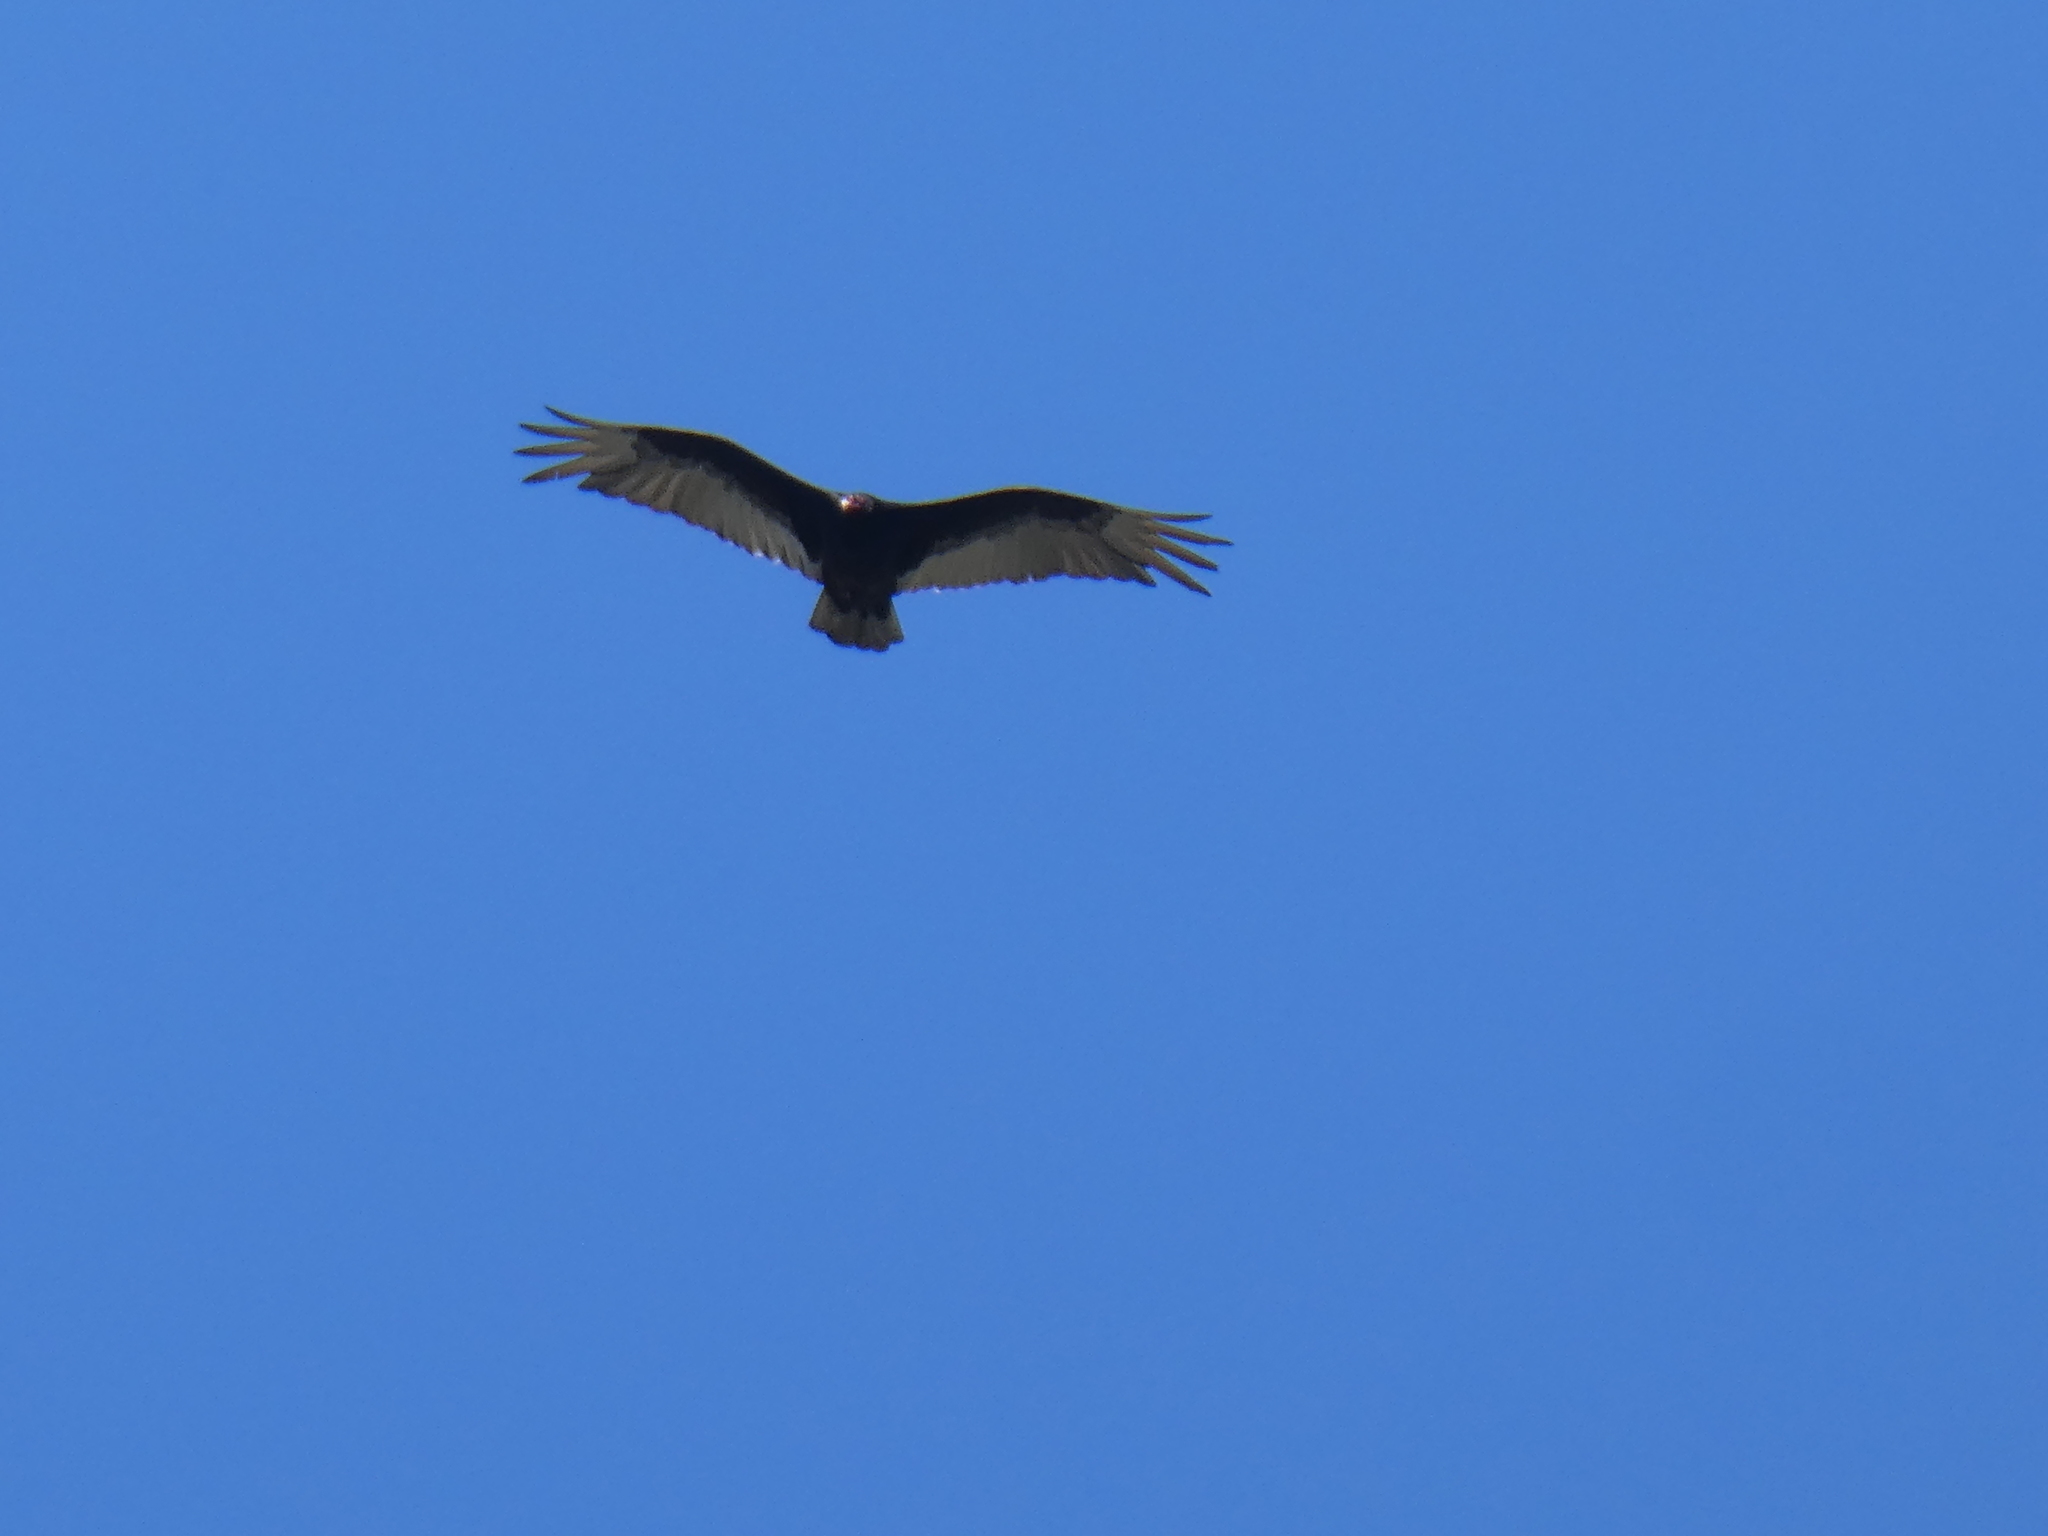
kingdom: Animalia
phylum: Chordata
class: Aves
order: Accipitriformes
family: Cathartidae
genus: Cathartes
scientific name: Cathartes aura
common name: Turkey vulture
